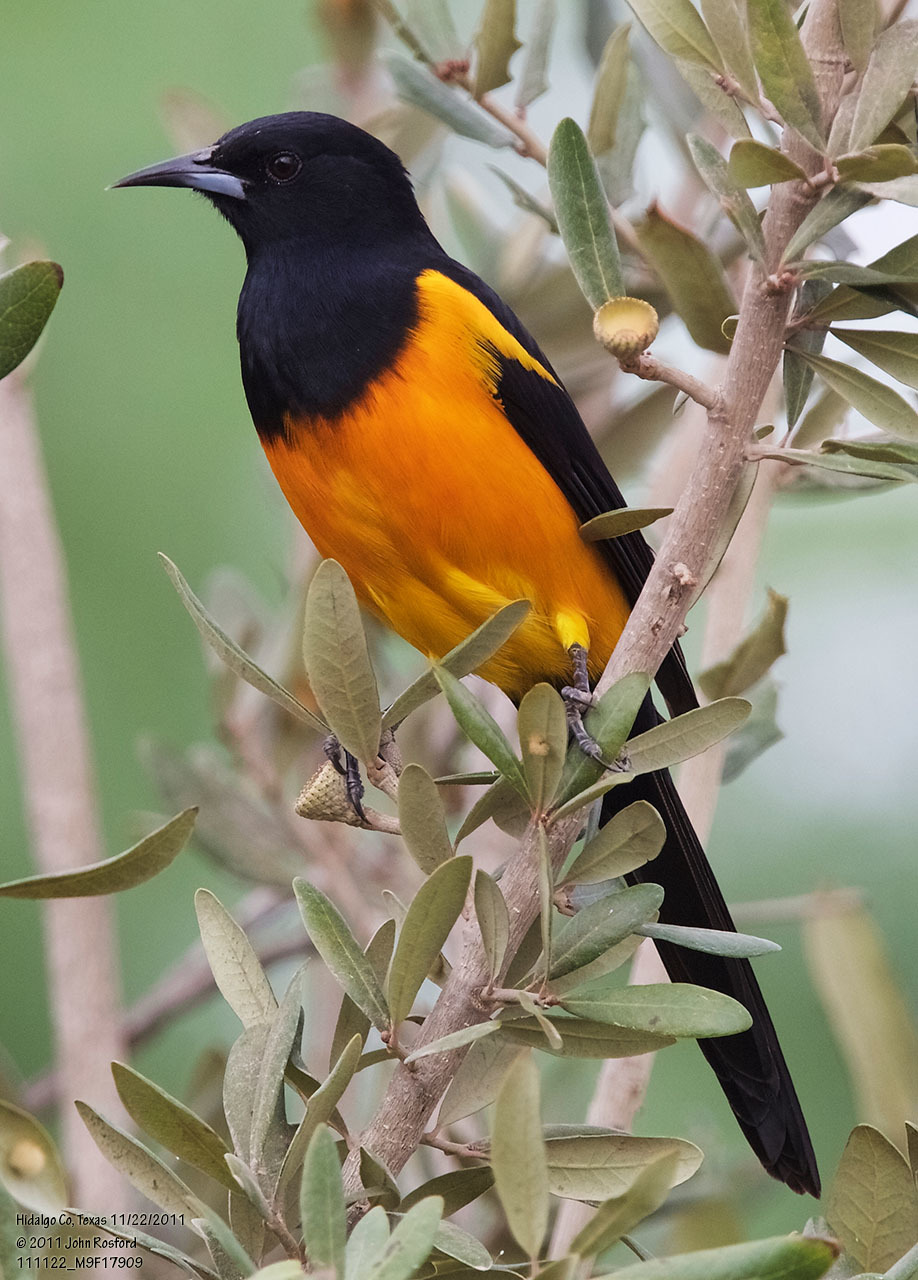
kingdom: Animalia
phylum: Chordata
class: Aves
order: Passeriformes
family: Icteridae
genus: Icterus
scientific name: Icterus wagleri
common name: Black-vented oriole
